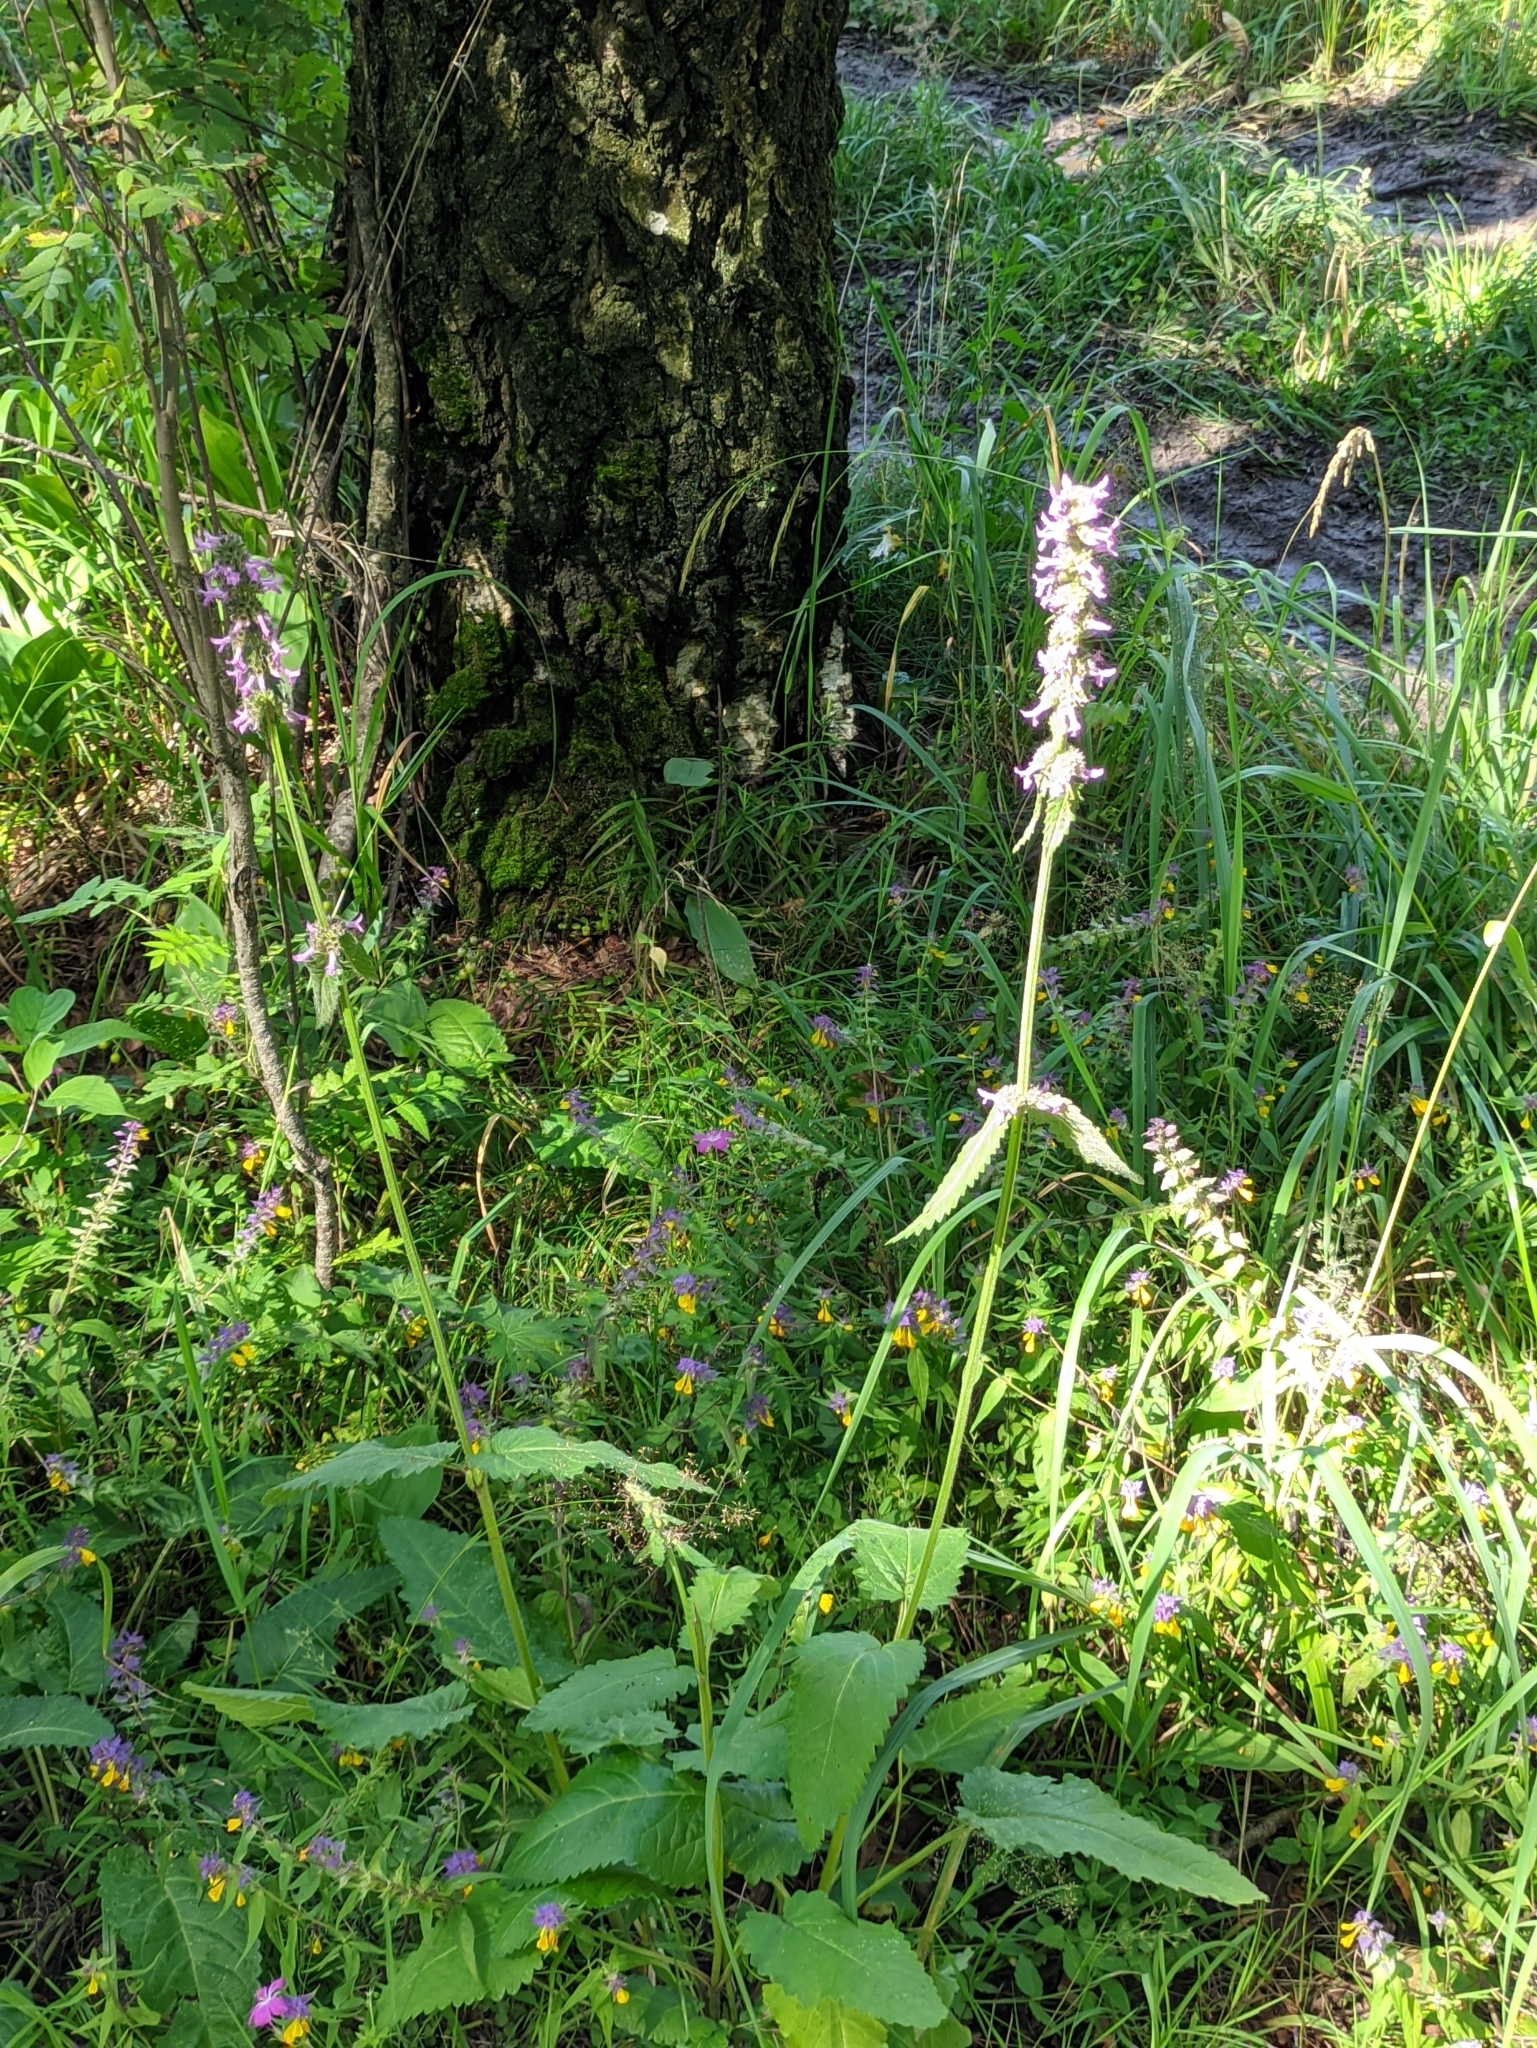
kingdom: Plantae
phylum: Tracheophyta
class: Magnoliopsida
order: Lamiales
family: Lamiaceae
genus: Betonica
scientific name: Betonica officinalis
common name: Bishop's-wort
